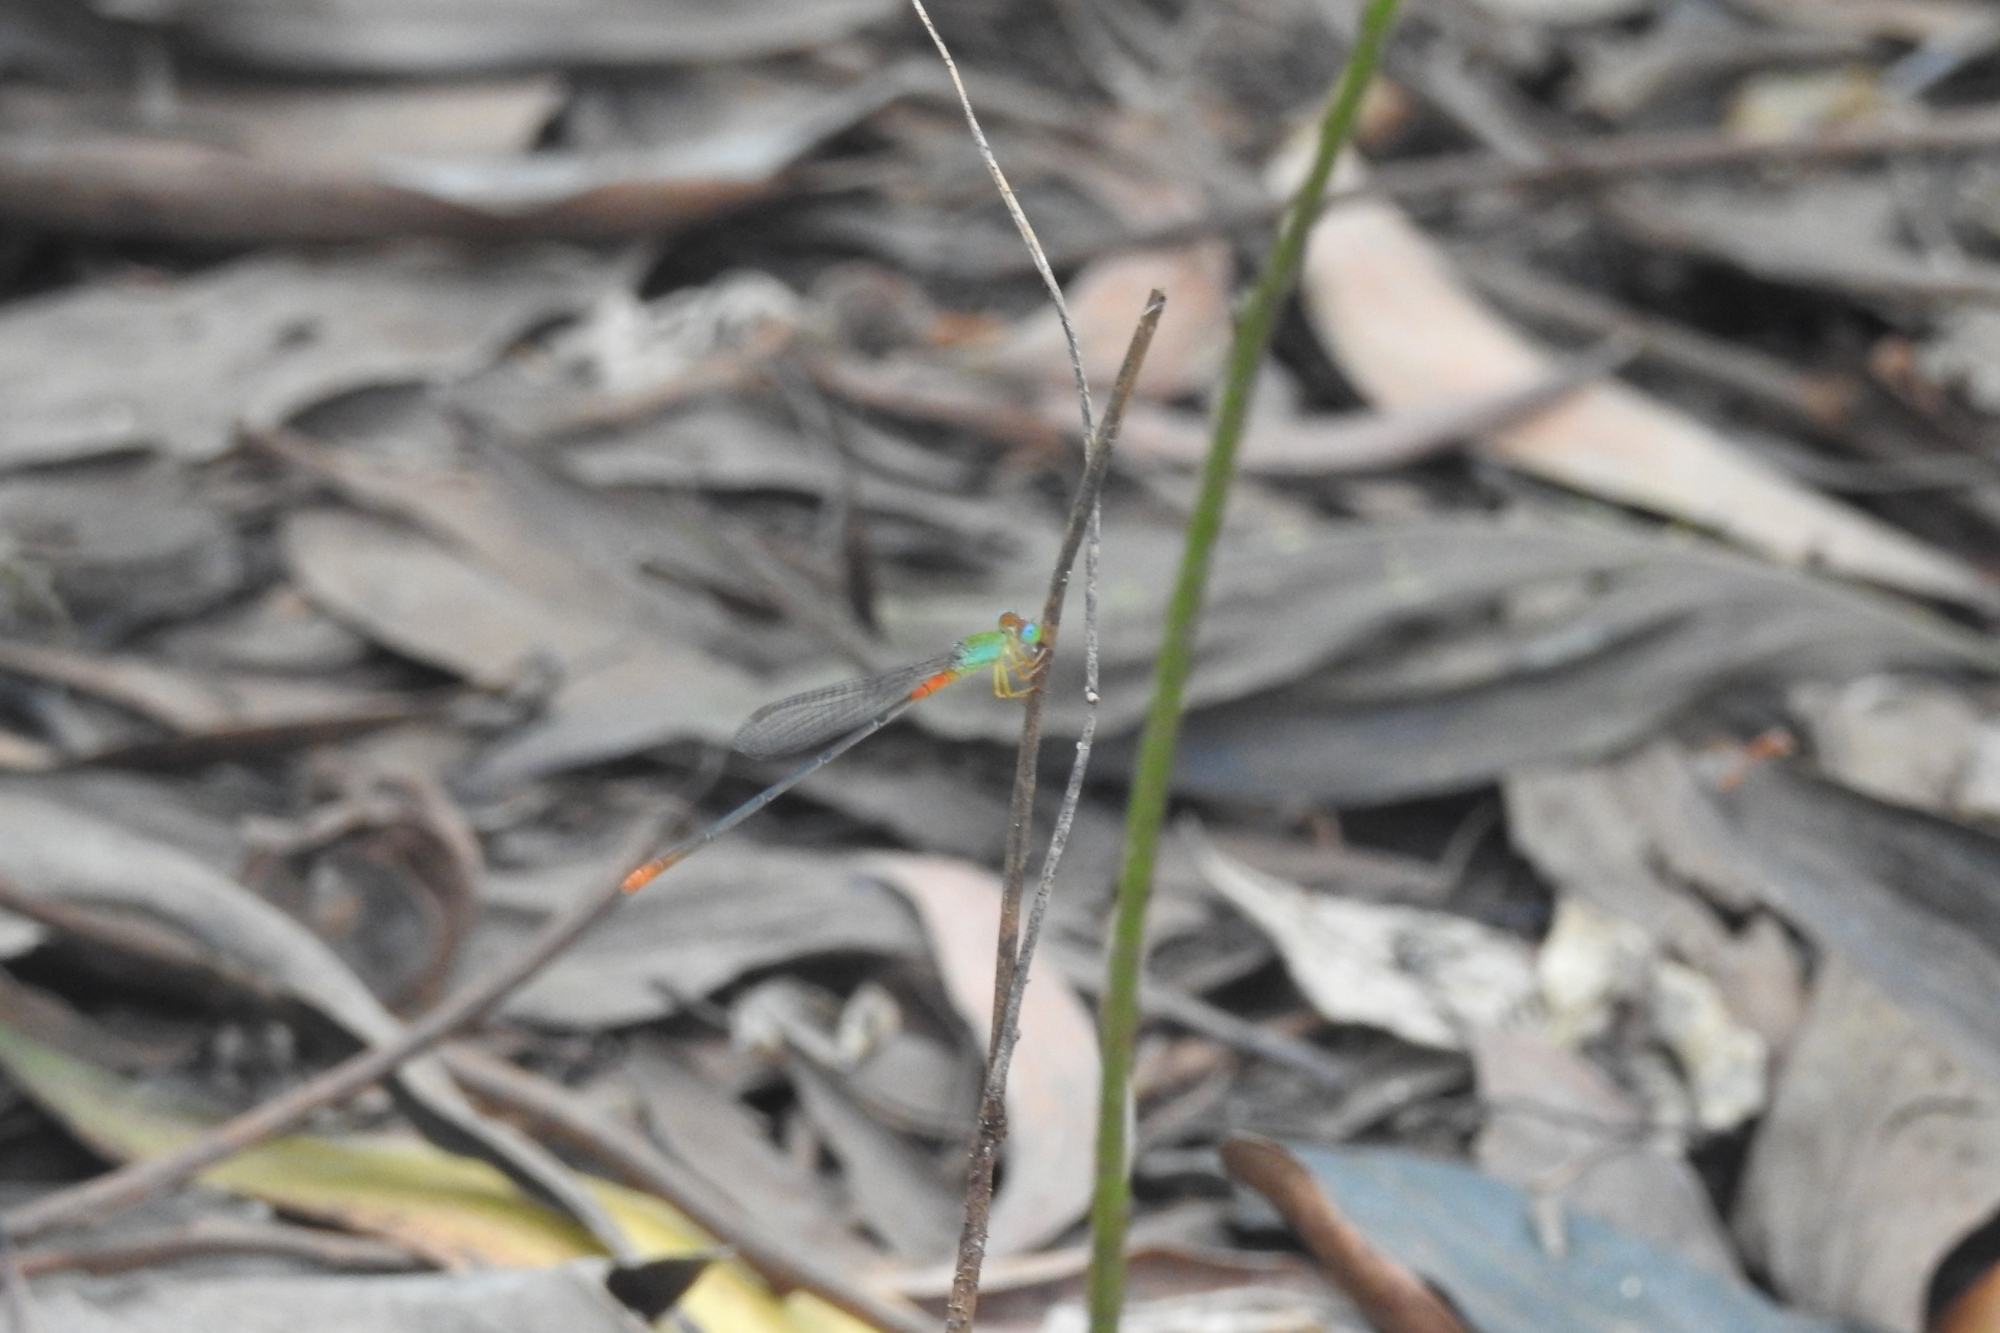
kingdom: Animalia
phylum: Arthropoda
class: Insecta
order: Odonata
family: Coenagrionidae
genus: Ceriagrion
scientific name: Ceriagrion cerinorubellum
